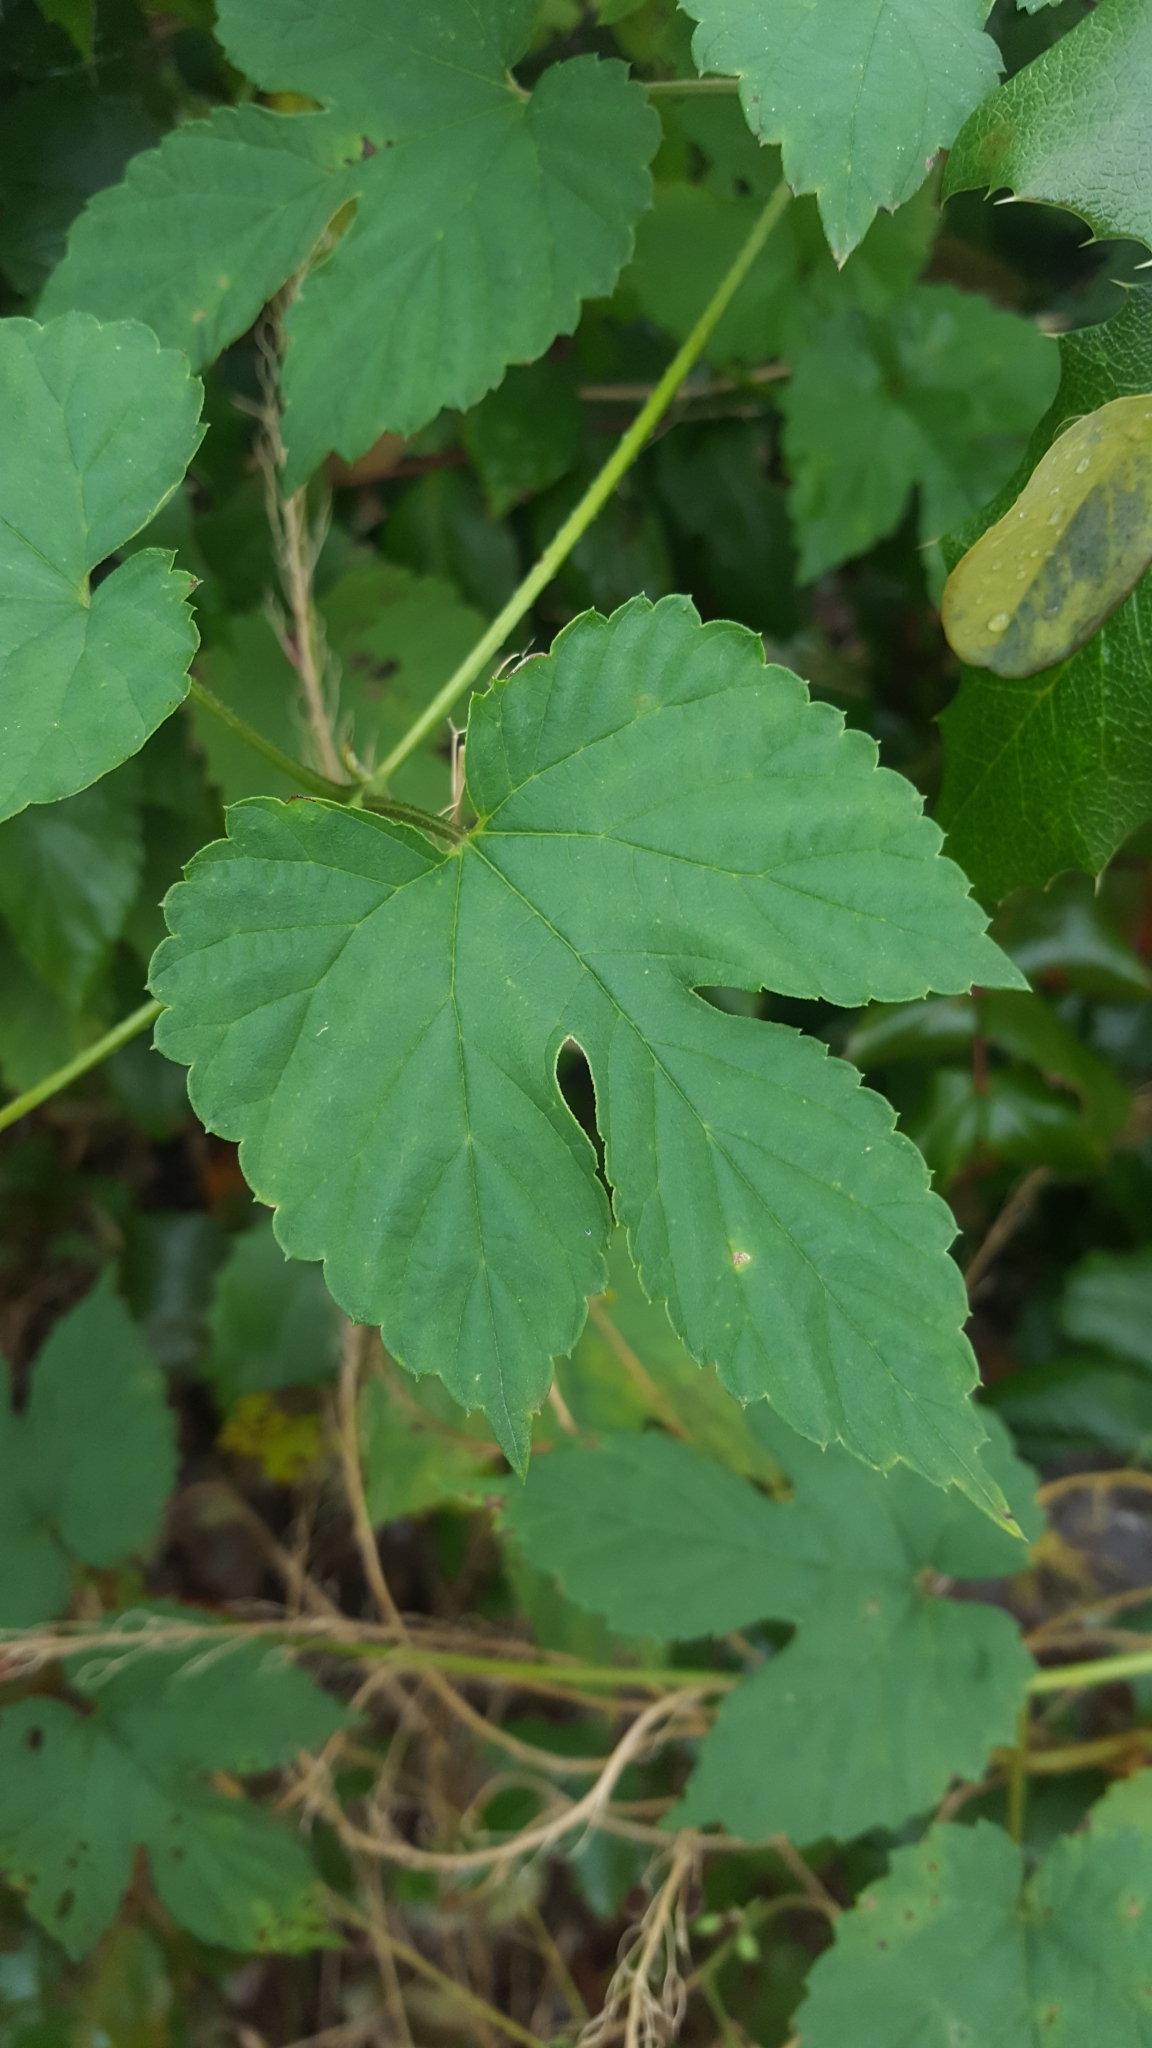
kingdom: Plantae
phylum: Tracheophyta
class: Magnoliopsida
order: Rosales
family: Cannabaceae
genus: Humulus
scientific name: Humulus lupulus
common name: Hop
